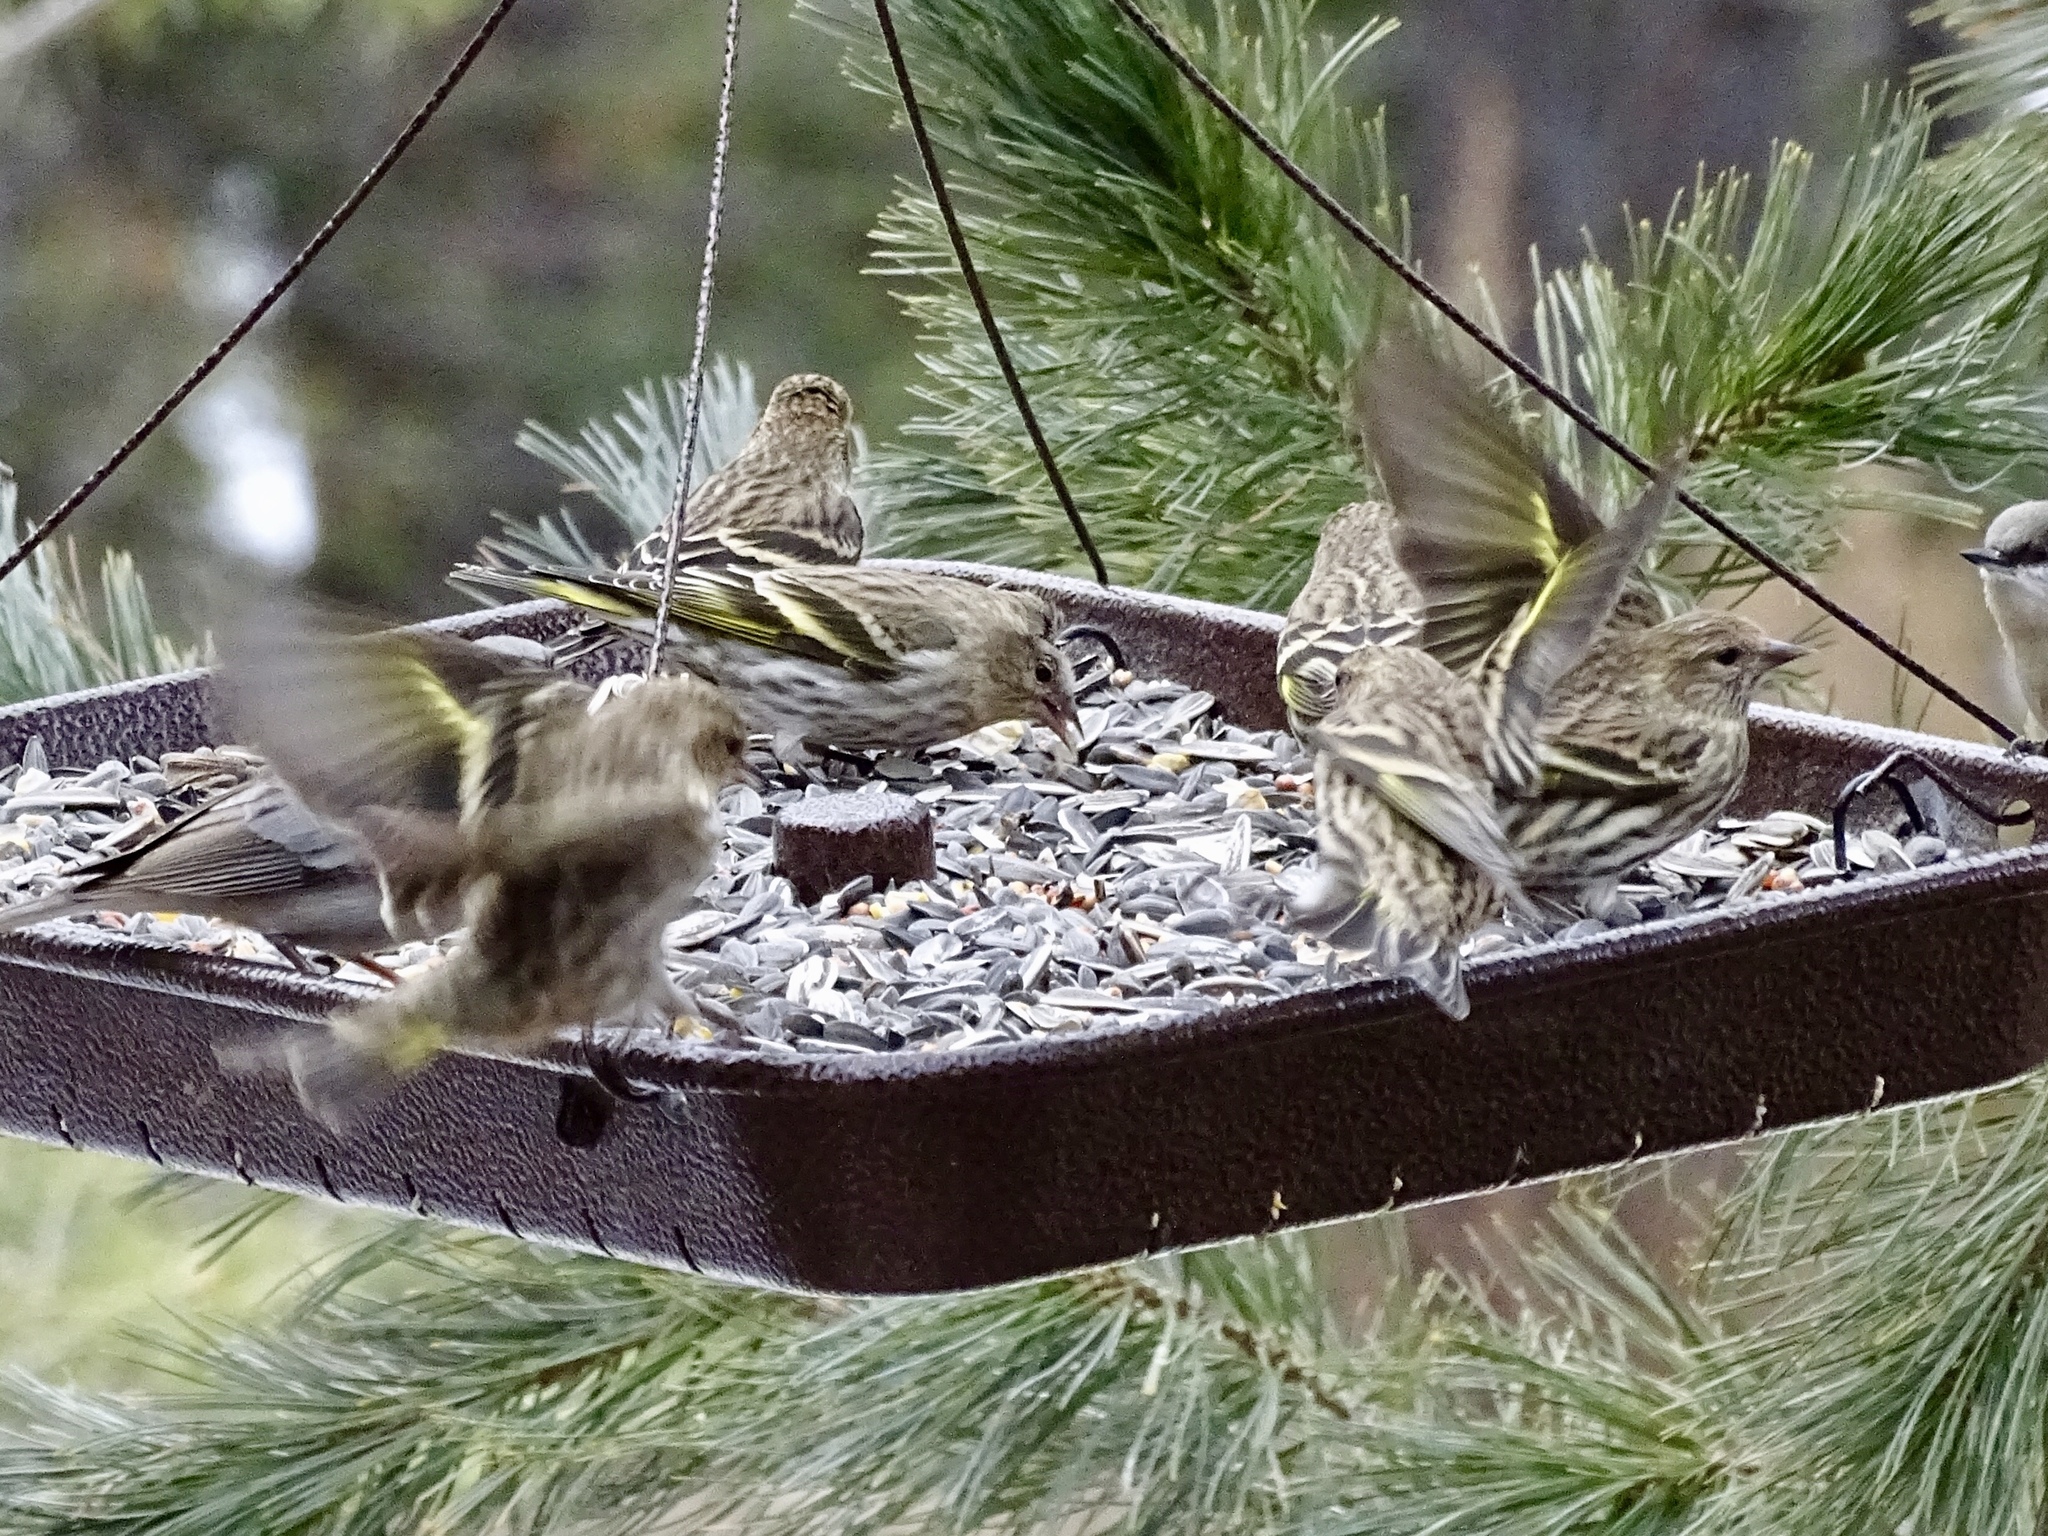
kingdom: Animalia
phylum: Chordata
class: Aves
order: Passeriformes
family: Fringillidae
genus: Spinus
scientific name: Spinus pinus
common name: Pine siskin
